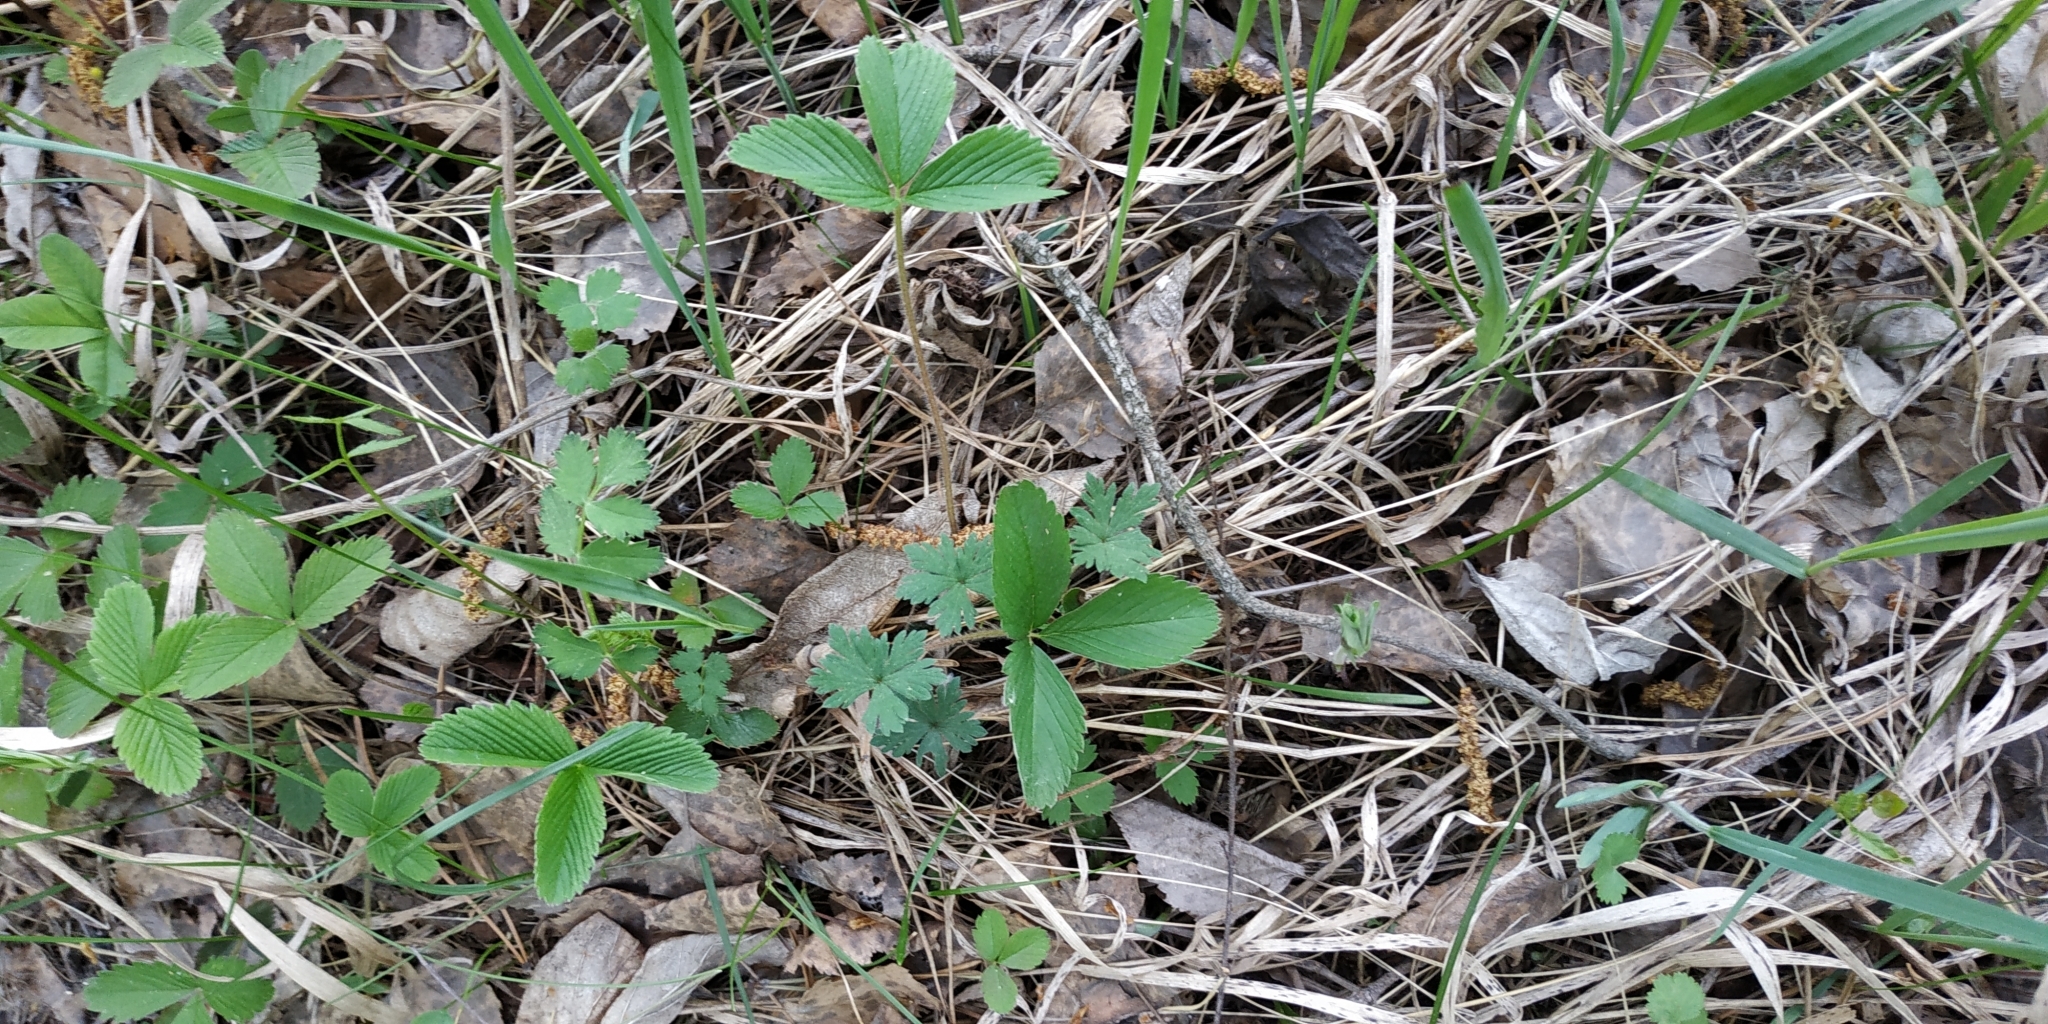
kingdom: Plantae
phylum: Tracheophyta
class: Magnoliopsida
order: Rosales
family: Rosaceae
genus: Fragaria
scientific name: Fragaria viridis
